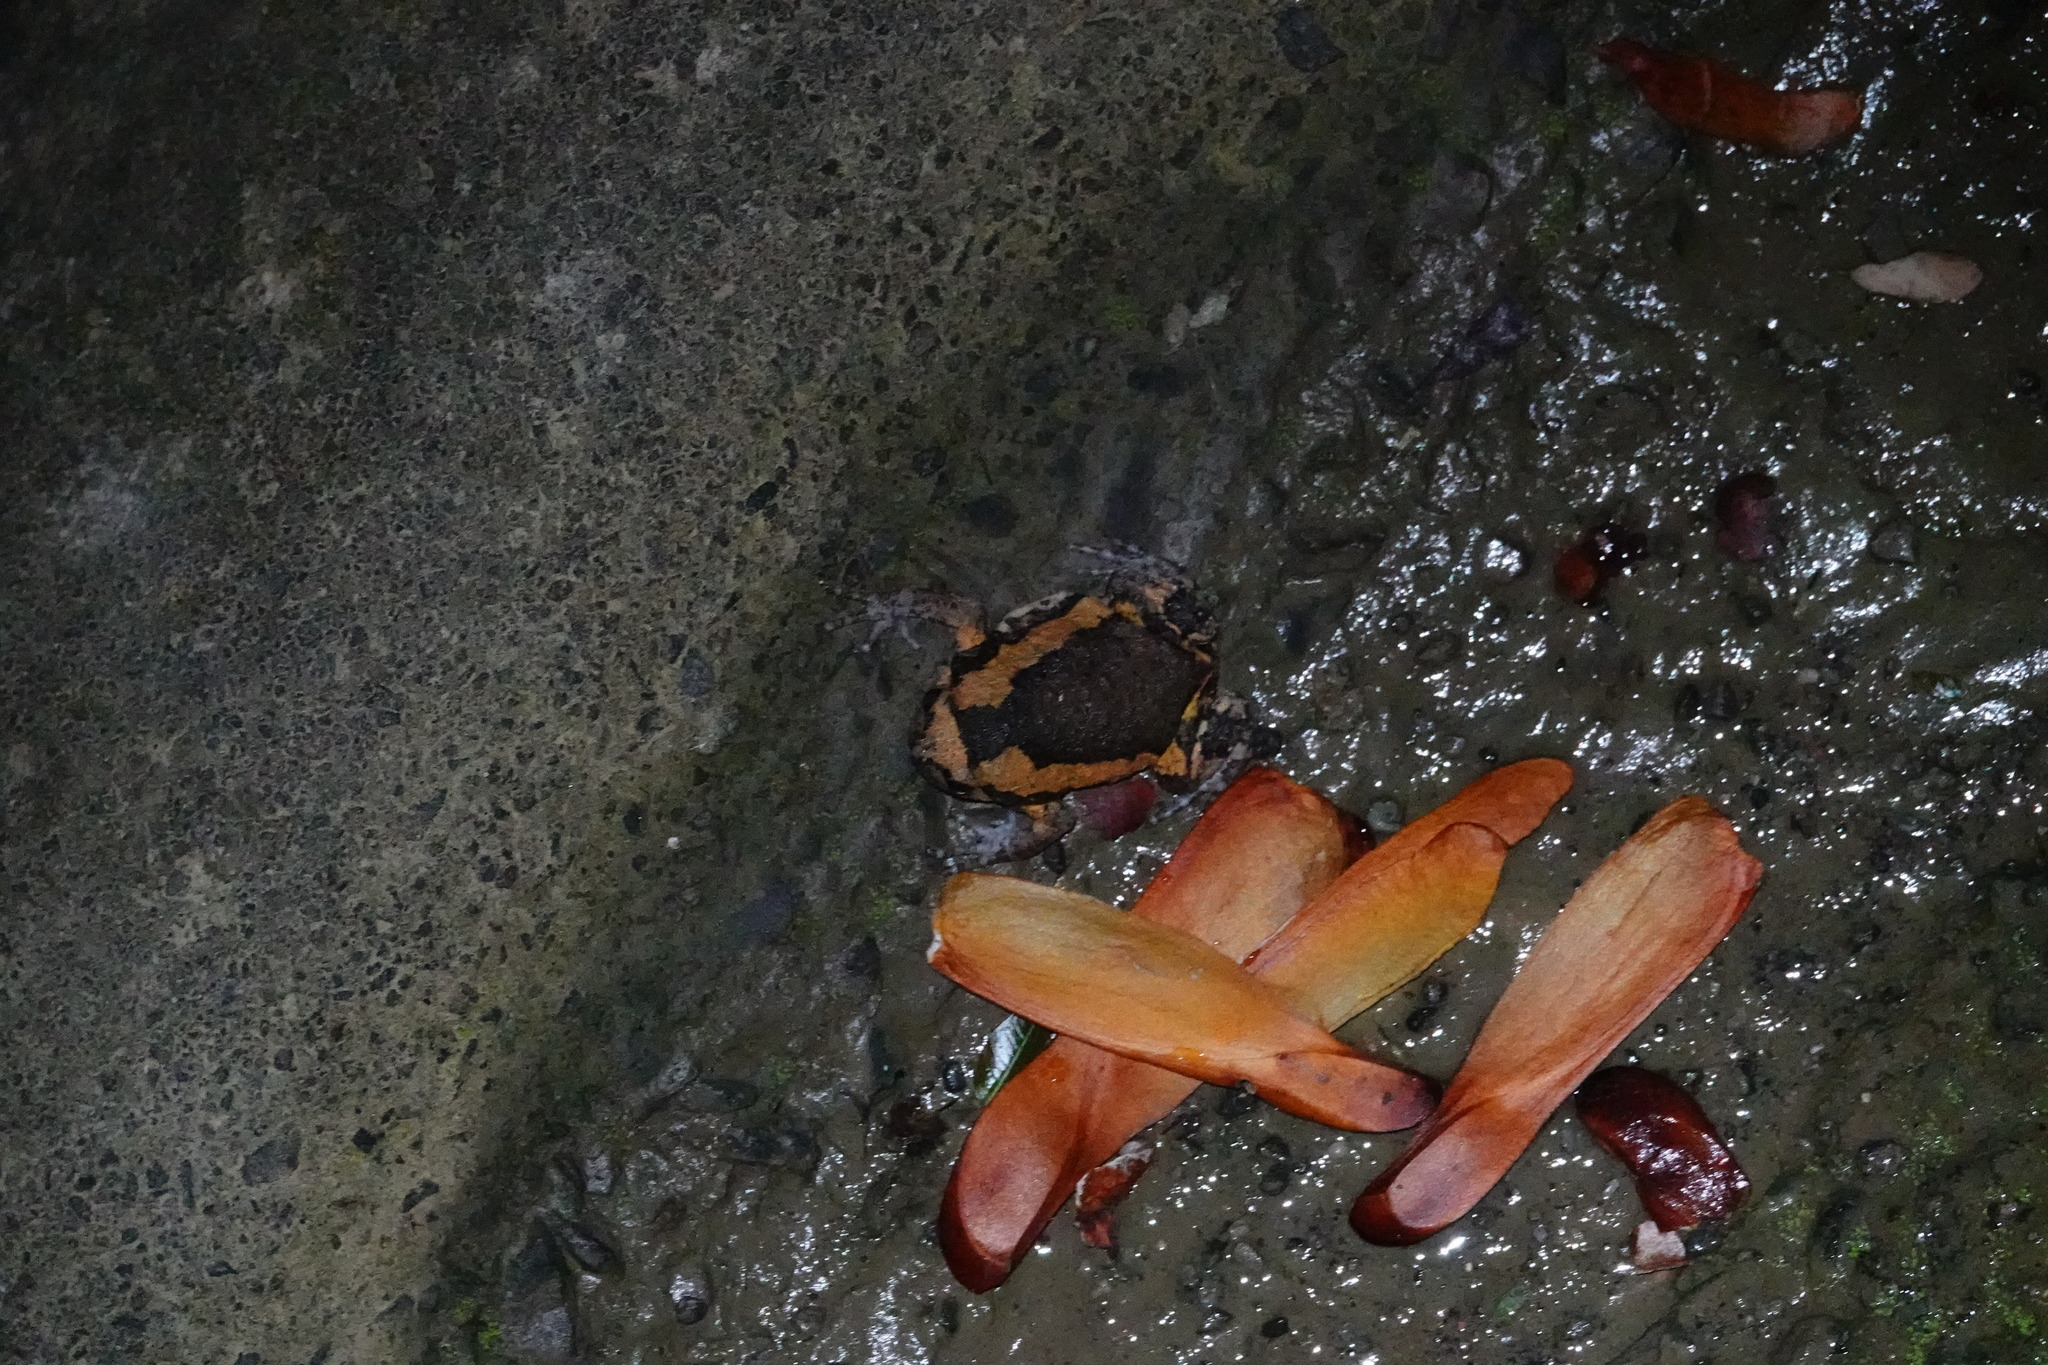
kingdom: Animalia
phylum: Chordata
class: Amphibia
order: Anura
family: Microhylidae
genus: Kaloula
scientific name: Kaloula pulchra
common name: Common,banded bullfrog
